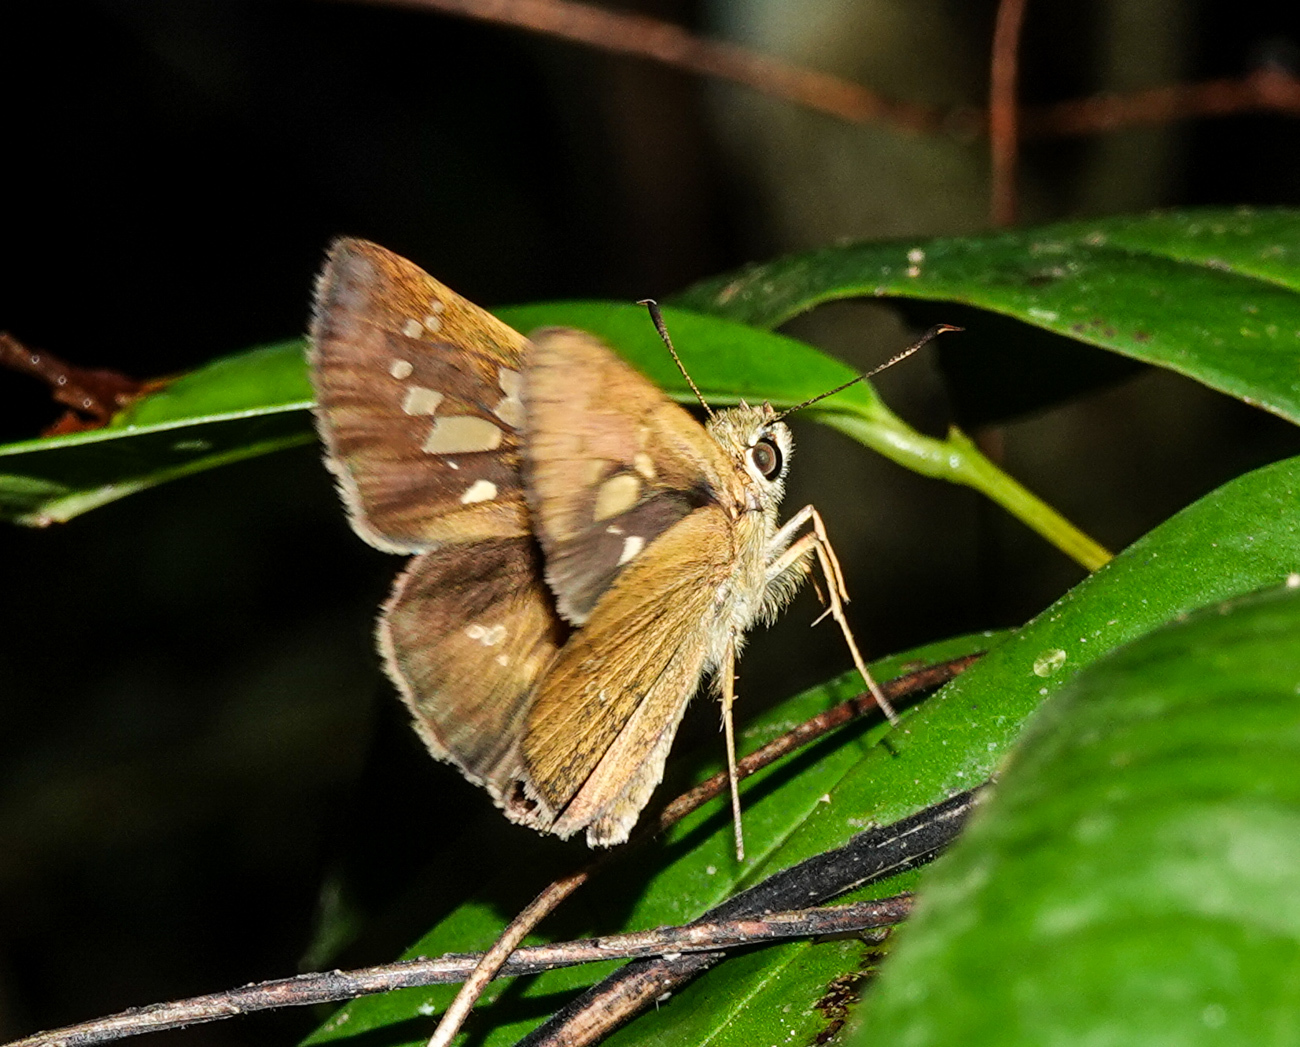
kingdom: Animalia
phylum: Arthropoda
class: Insecta
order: Lepidoptera
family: Hesperiidae
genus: Polytremis
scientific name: Polytremis lubricans
